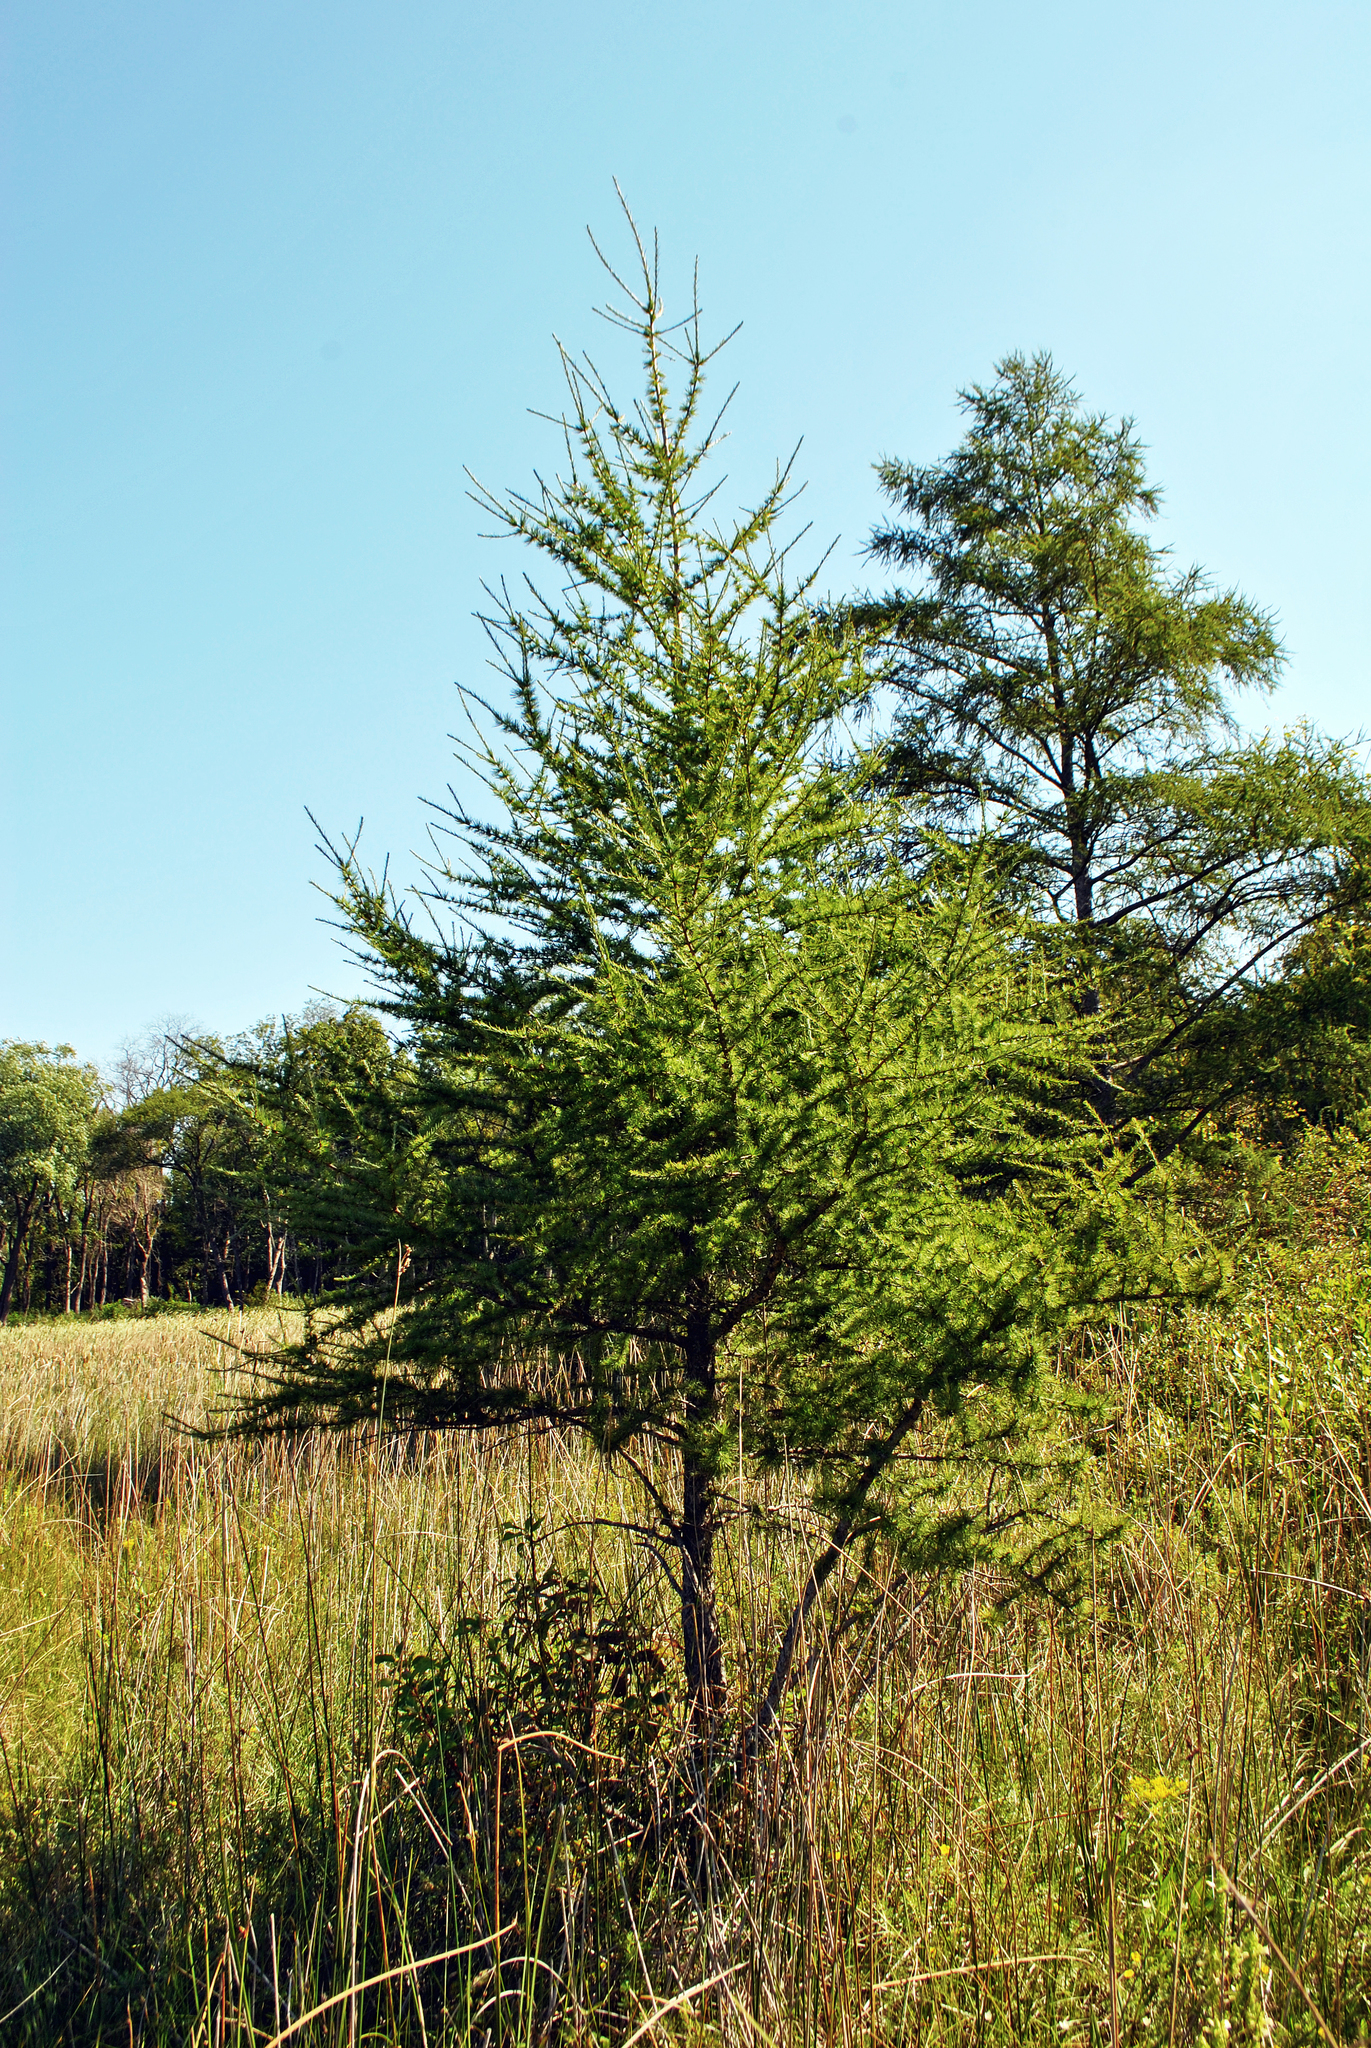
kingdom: Plantae
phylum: Tracheophyta
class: Pinopsida
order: Pinales
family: Pinaceae
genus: Larix
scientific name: Larix laricina
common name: American larch
